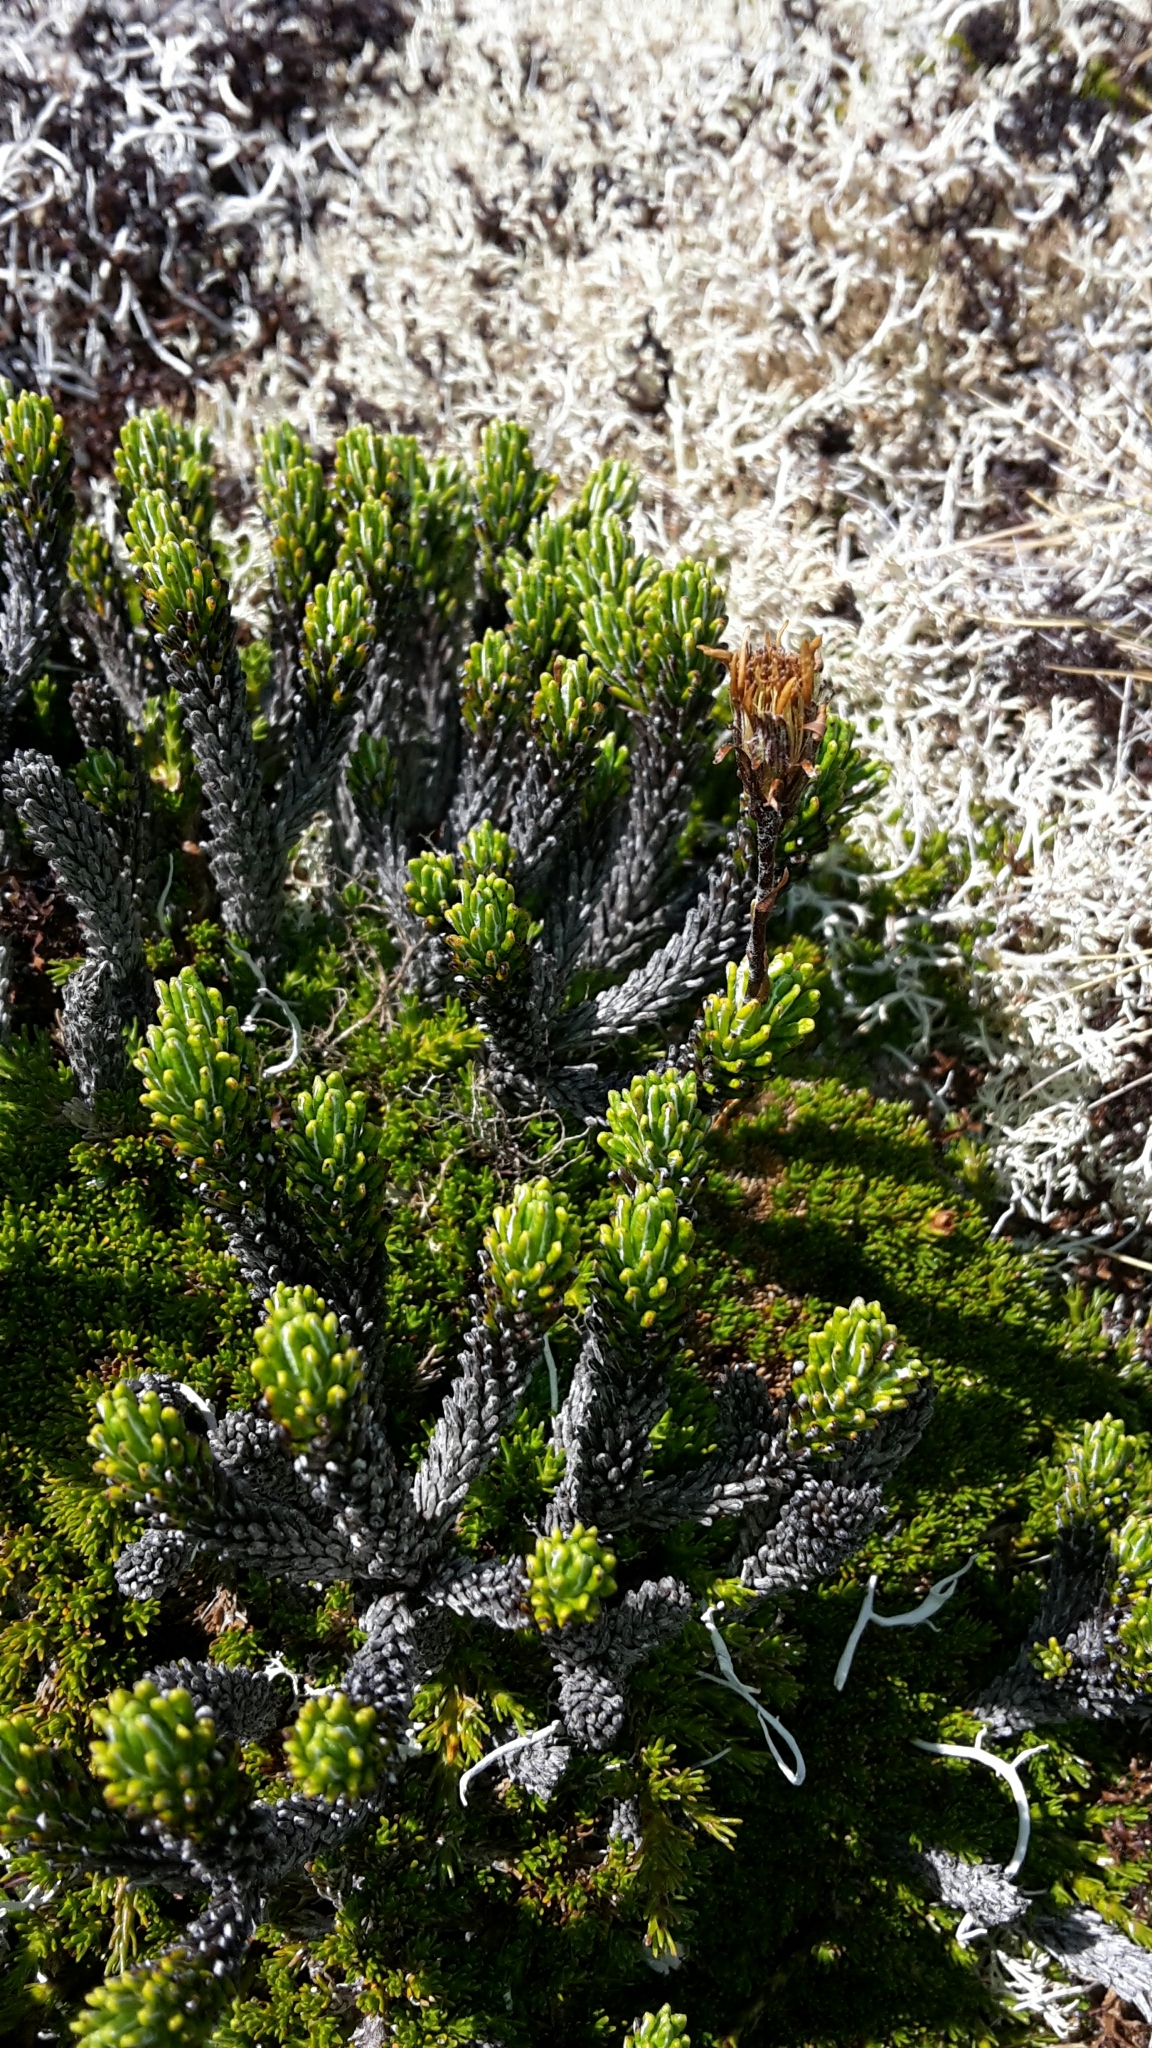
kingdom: Plantae
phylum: Tracheophyta
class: Magnoliopsida
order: Asterales
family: Asteraceae
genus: Celmisia
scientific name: Celmisia ramulosa
